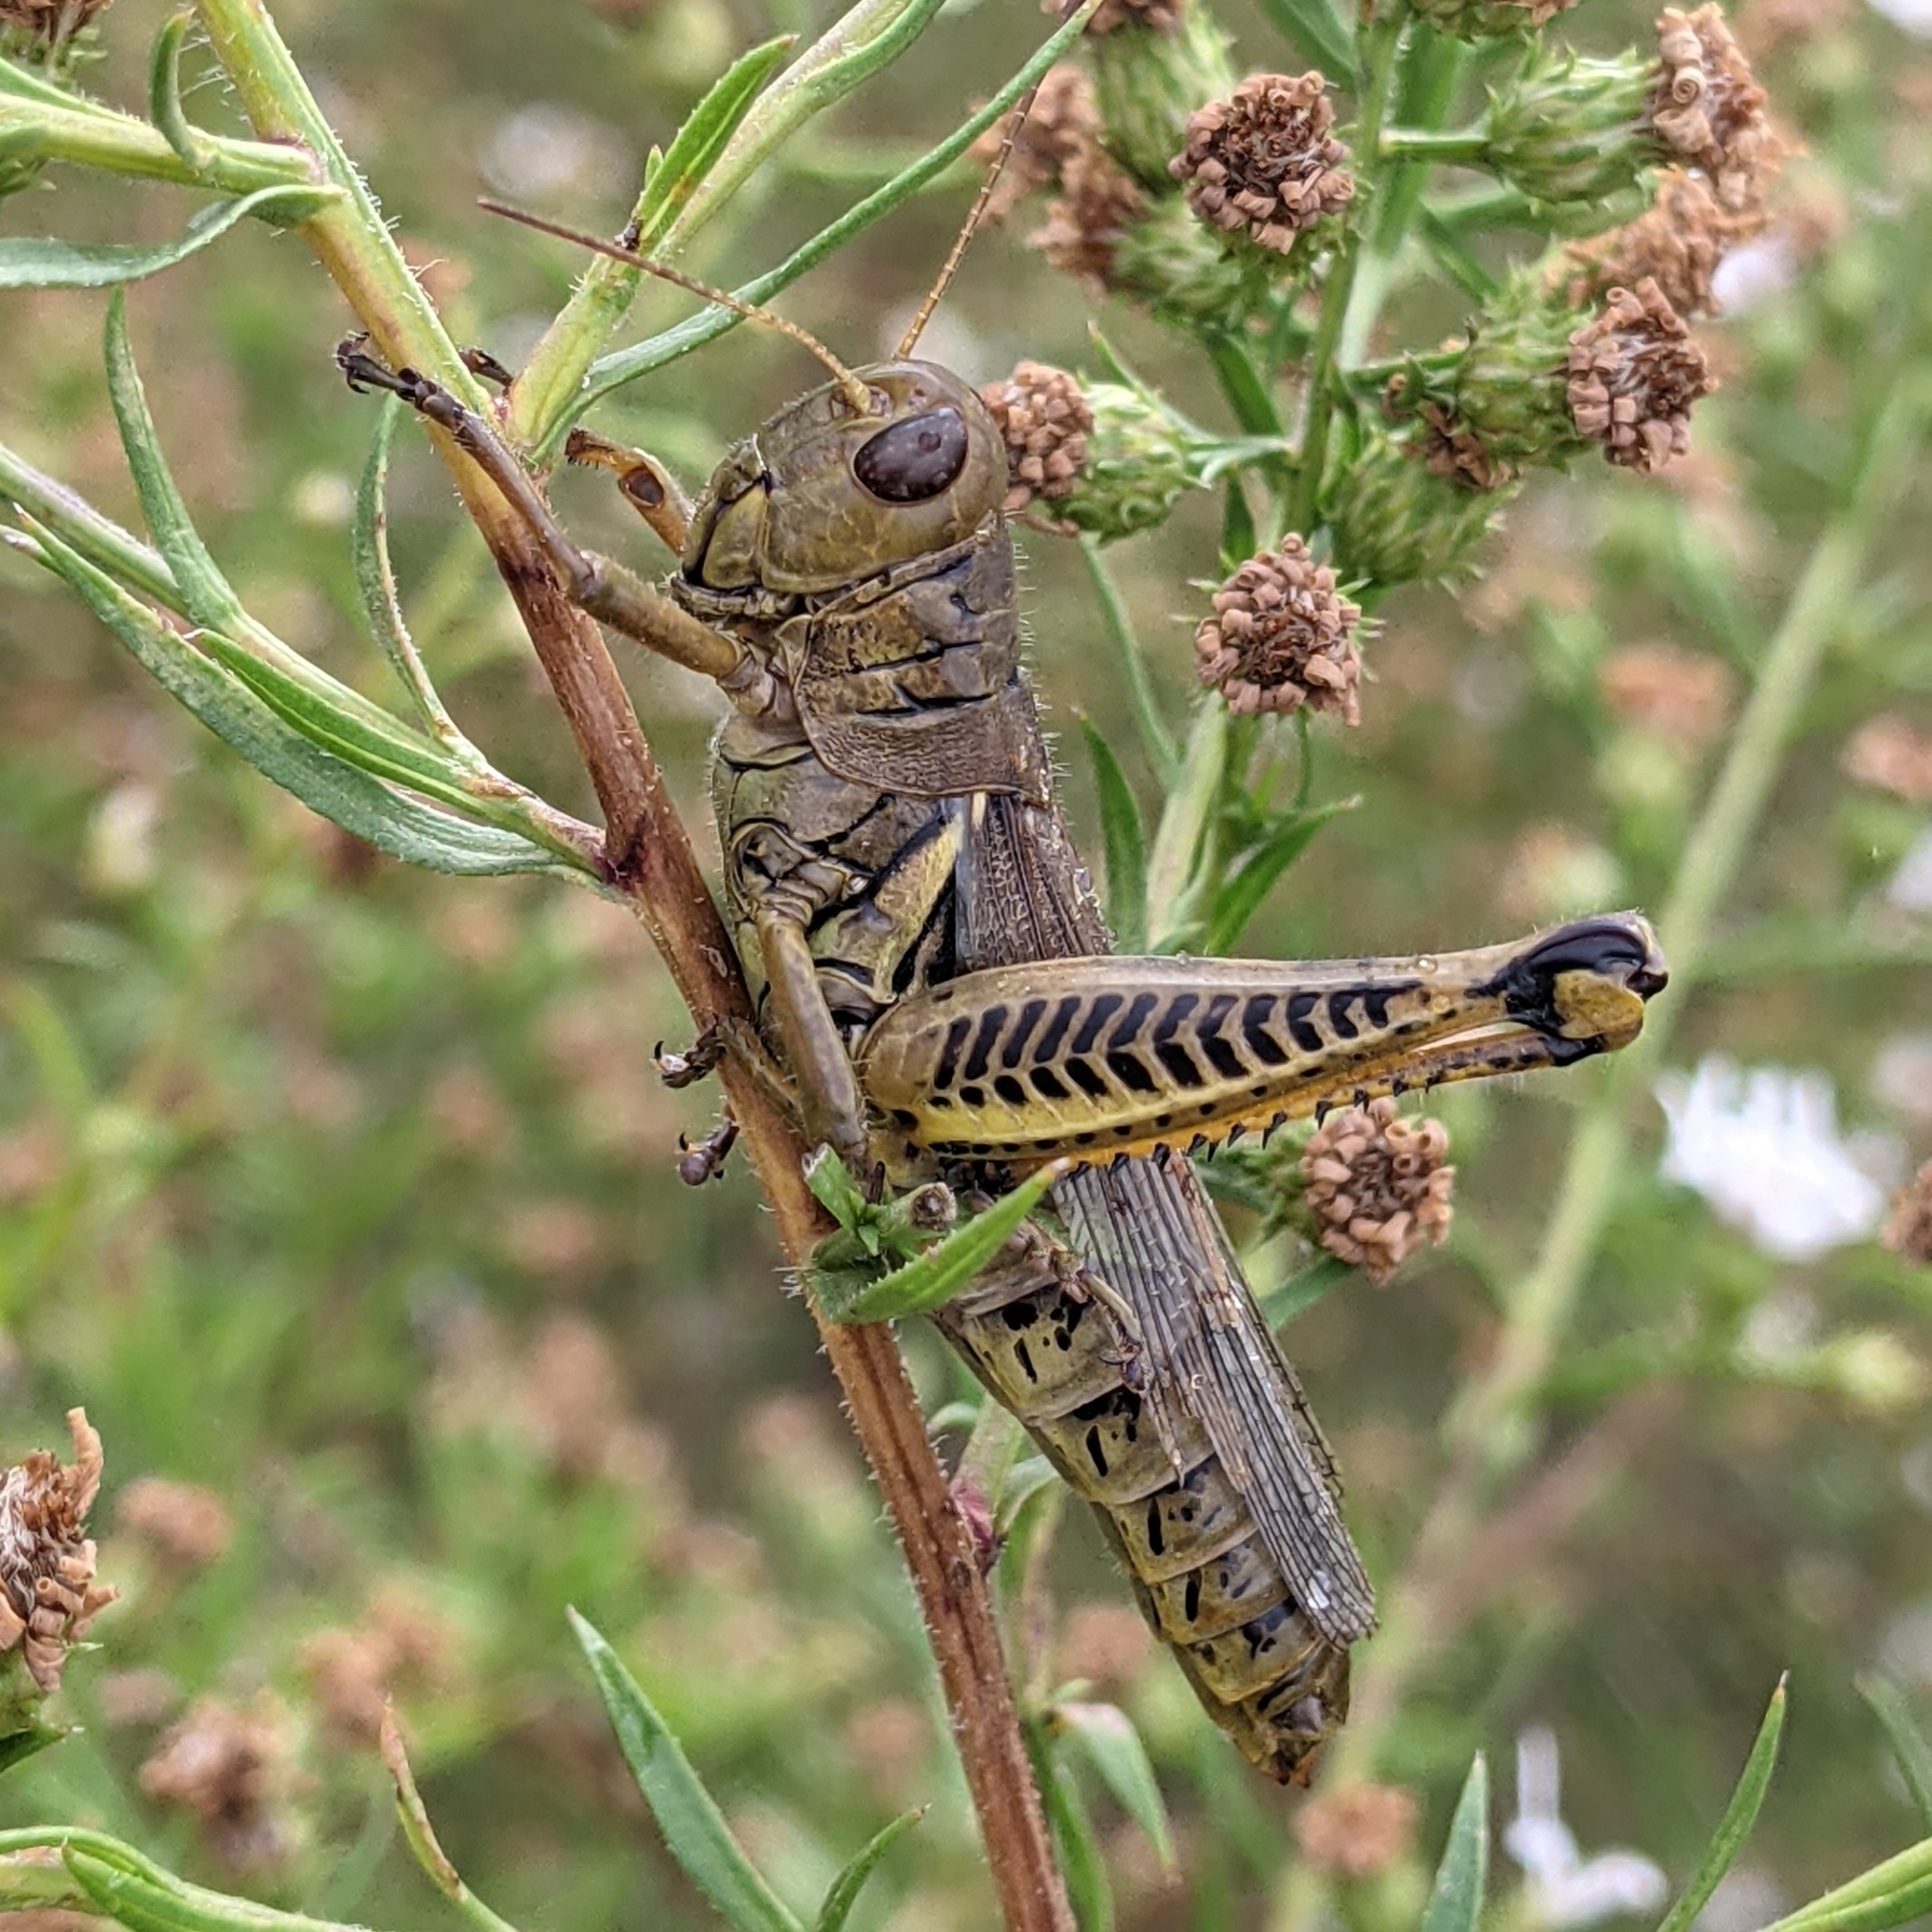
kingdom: Animalia
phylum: Arthropoda
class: Insecta
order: Orthoptera
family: Acrididae
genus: Melanoplus
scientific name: Melanoplus differentialis
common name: Differential grasshopper
